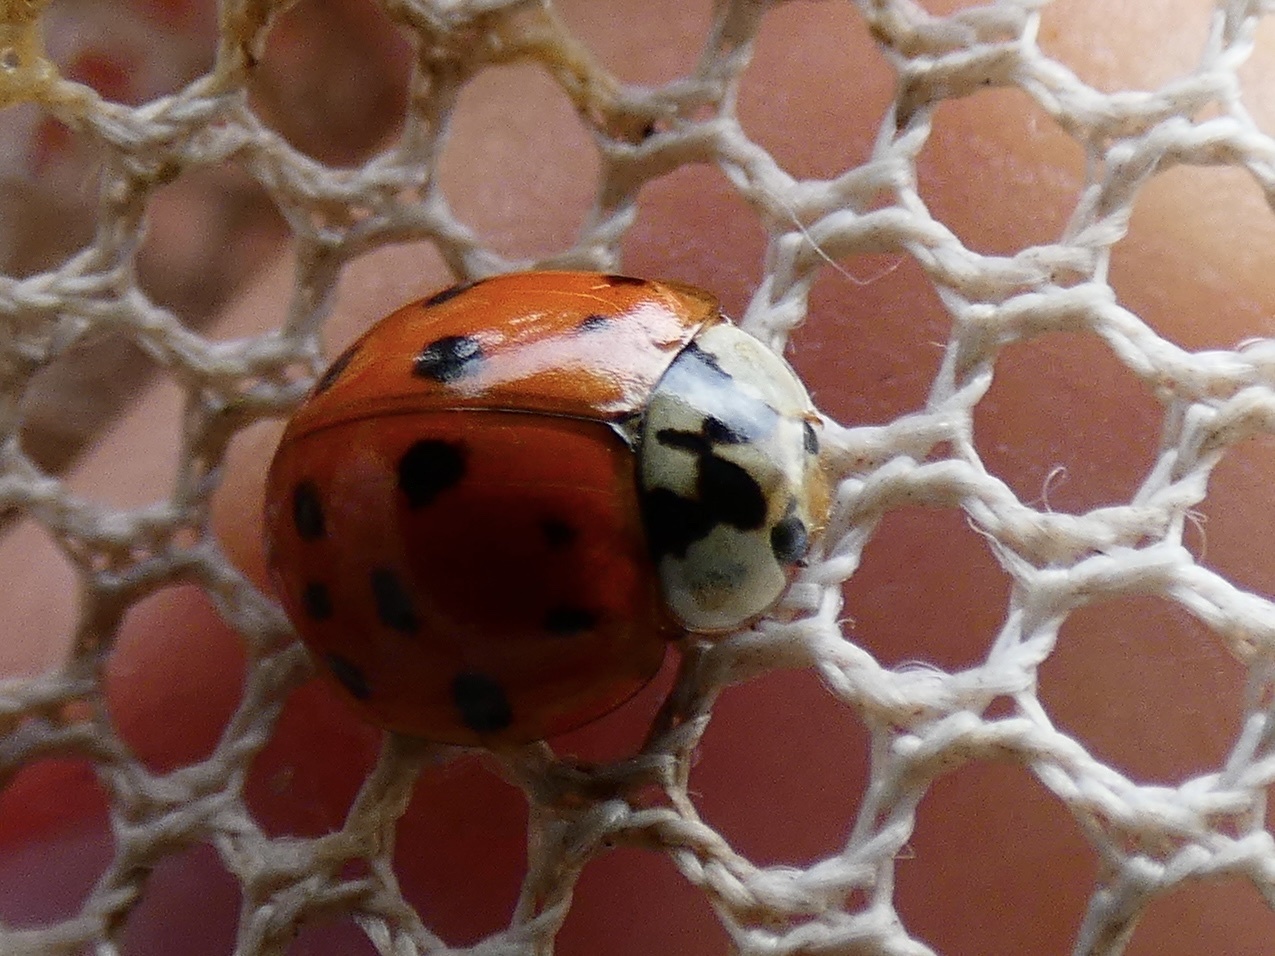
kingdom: Animalia
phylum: Arthropoda
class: Insecta
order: Coleoptera
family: Coccinellidae
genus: Harmonia
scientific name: Harmonia axyridis
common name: Harlequin ladybird
